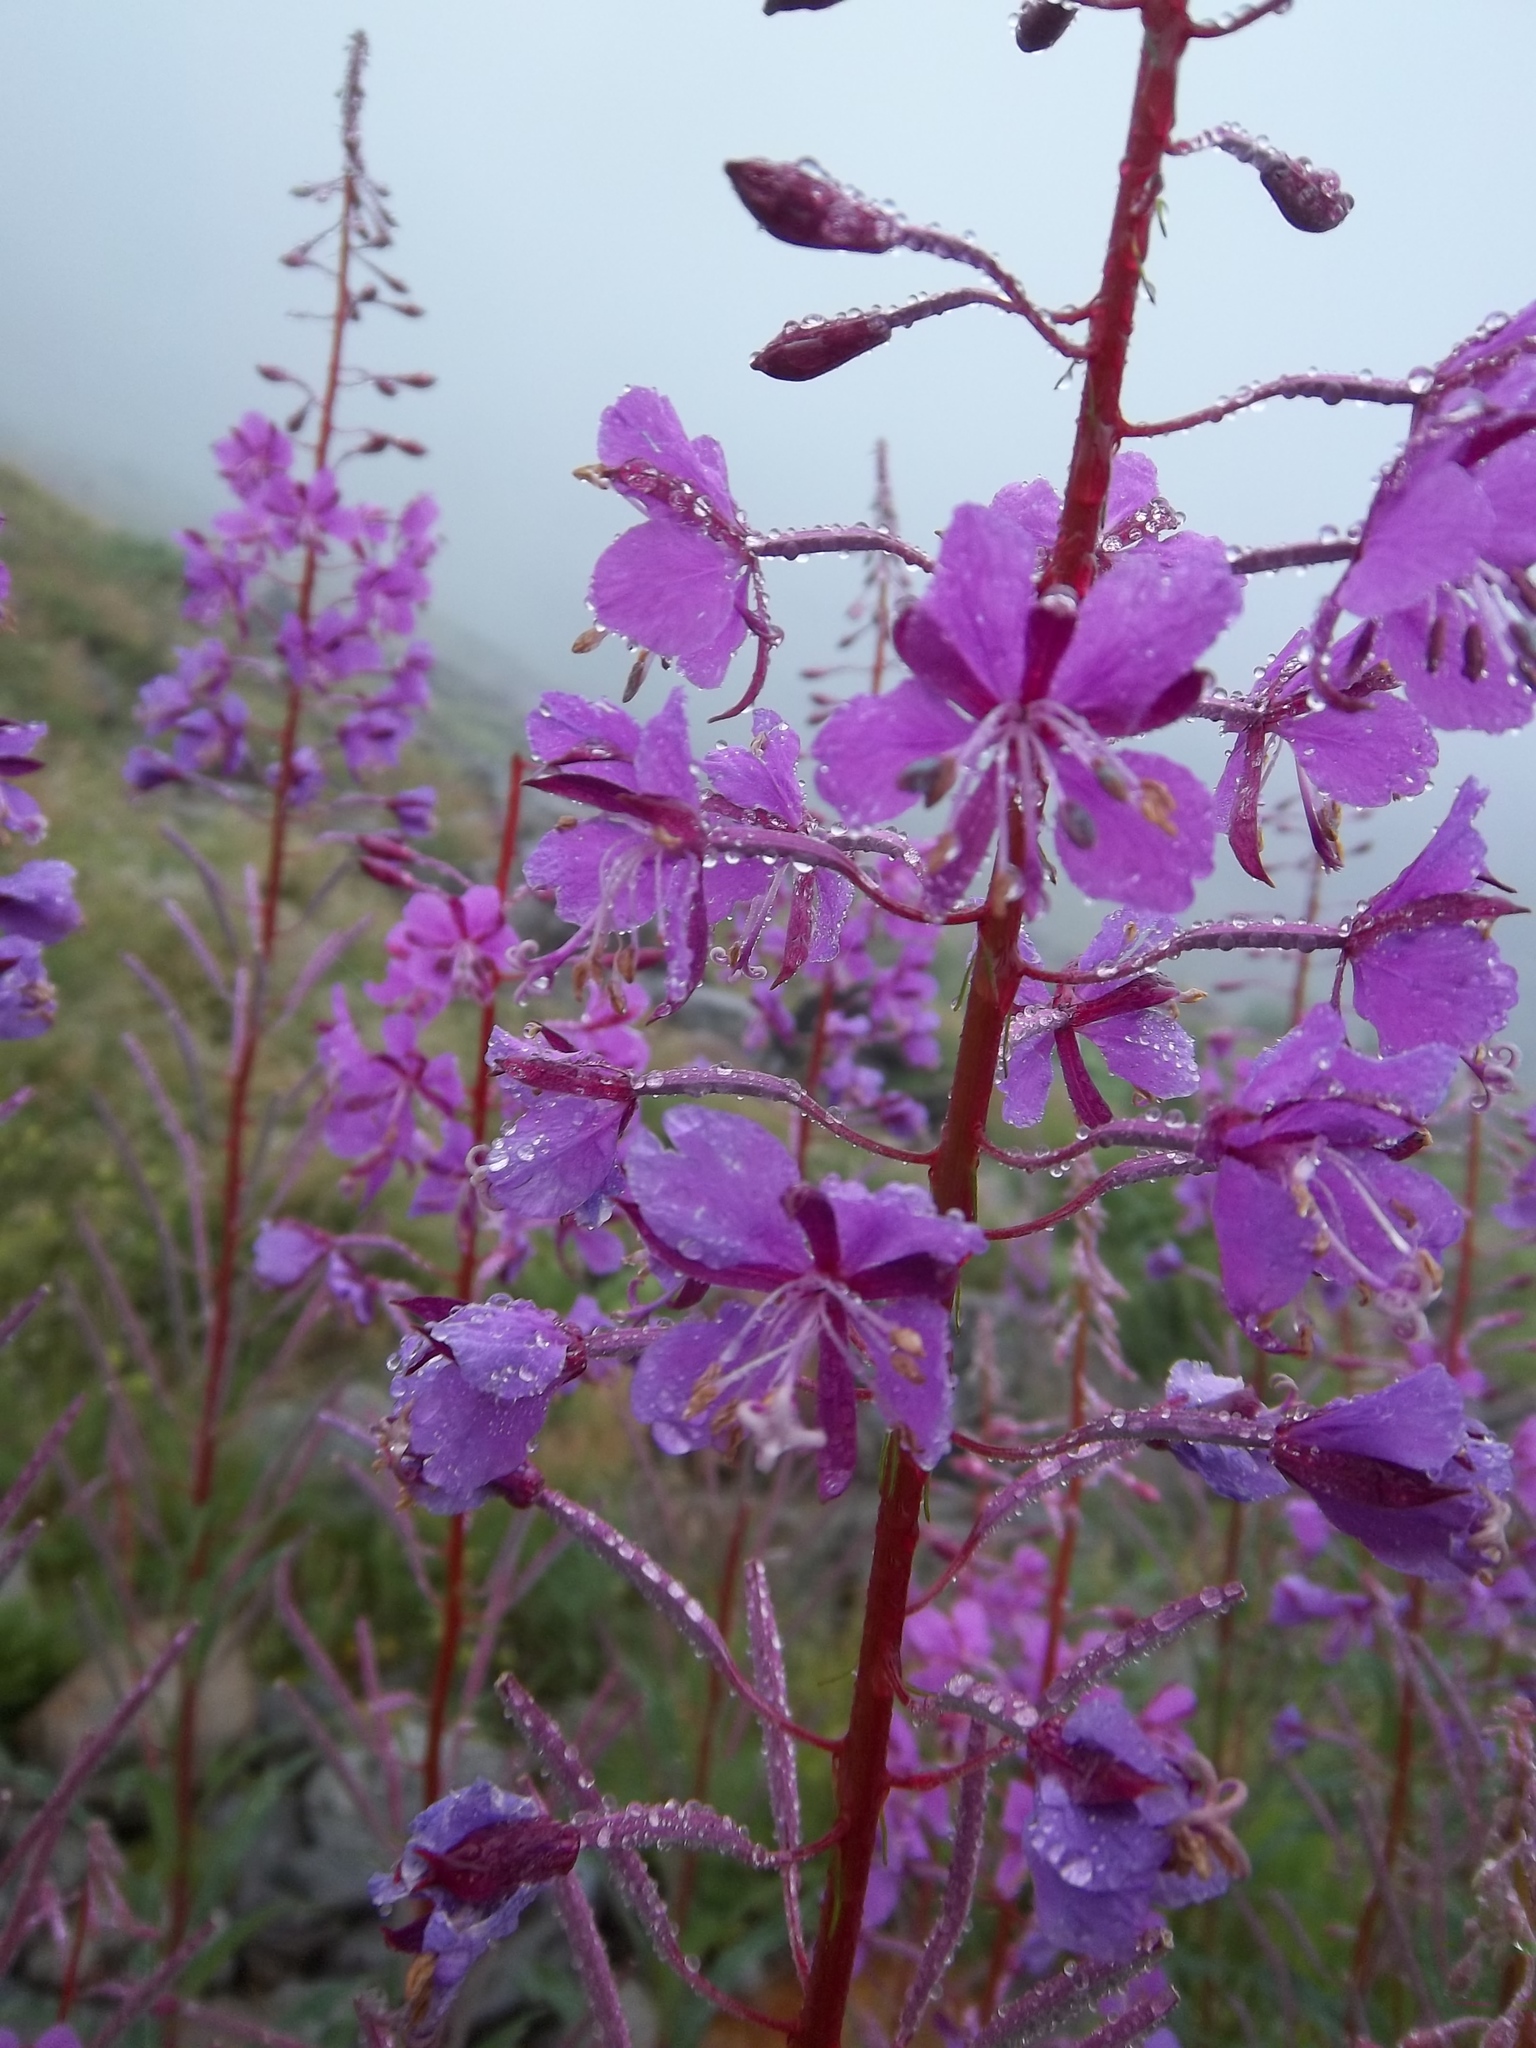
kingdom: Plantae
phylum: Tracheophyta
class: Magnoliopsida
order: Myrtales
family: Onagraceae
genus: Chamaenerion
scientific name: Chamaenerion angustifolium
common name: Fireweed
